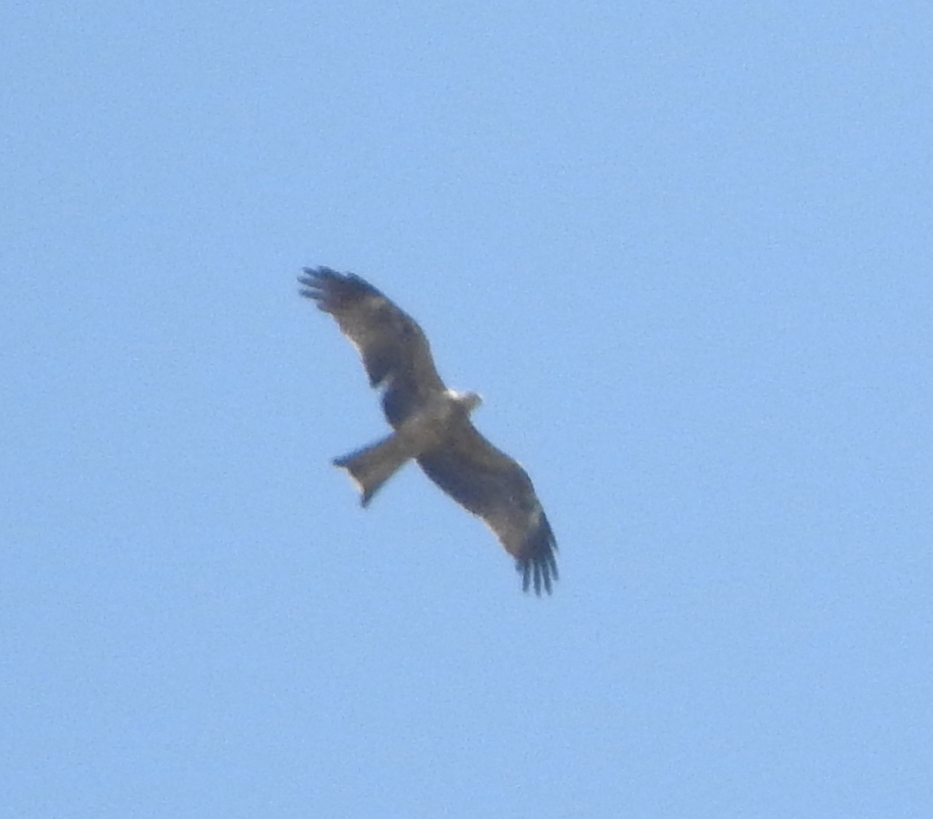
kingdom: Animalia
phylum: Chordata
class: Aves
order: Accipitriformes
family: Accipitridae
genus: Milvus
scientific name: Milvus migrans
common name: Black kite
